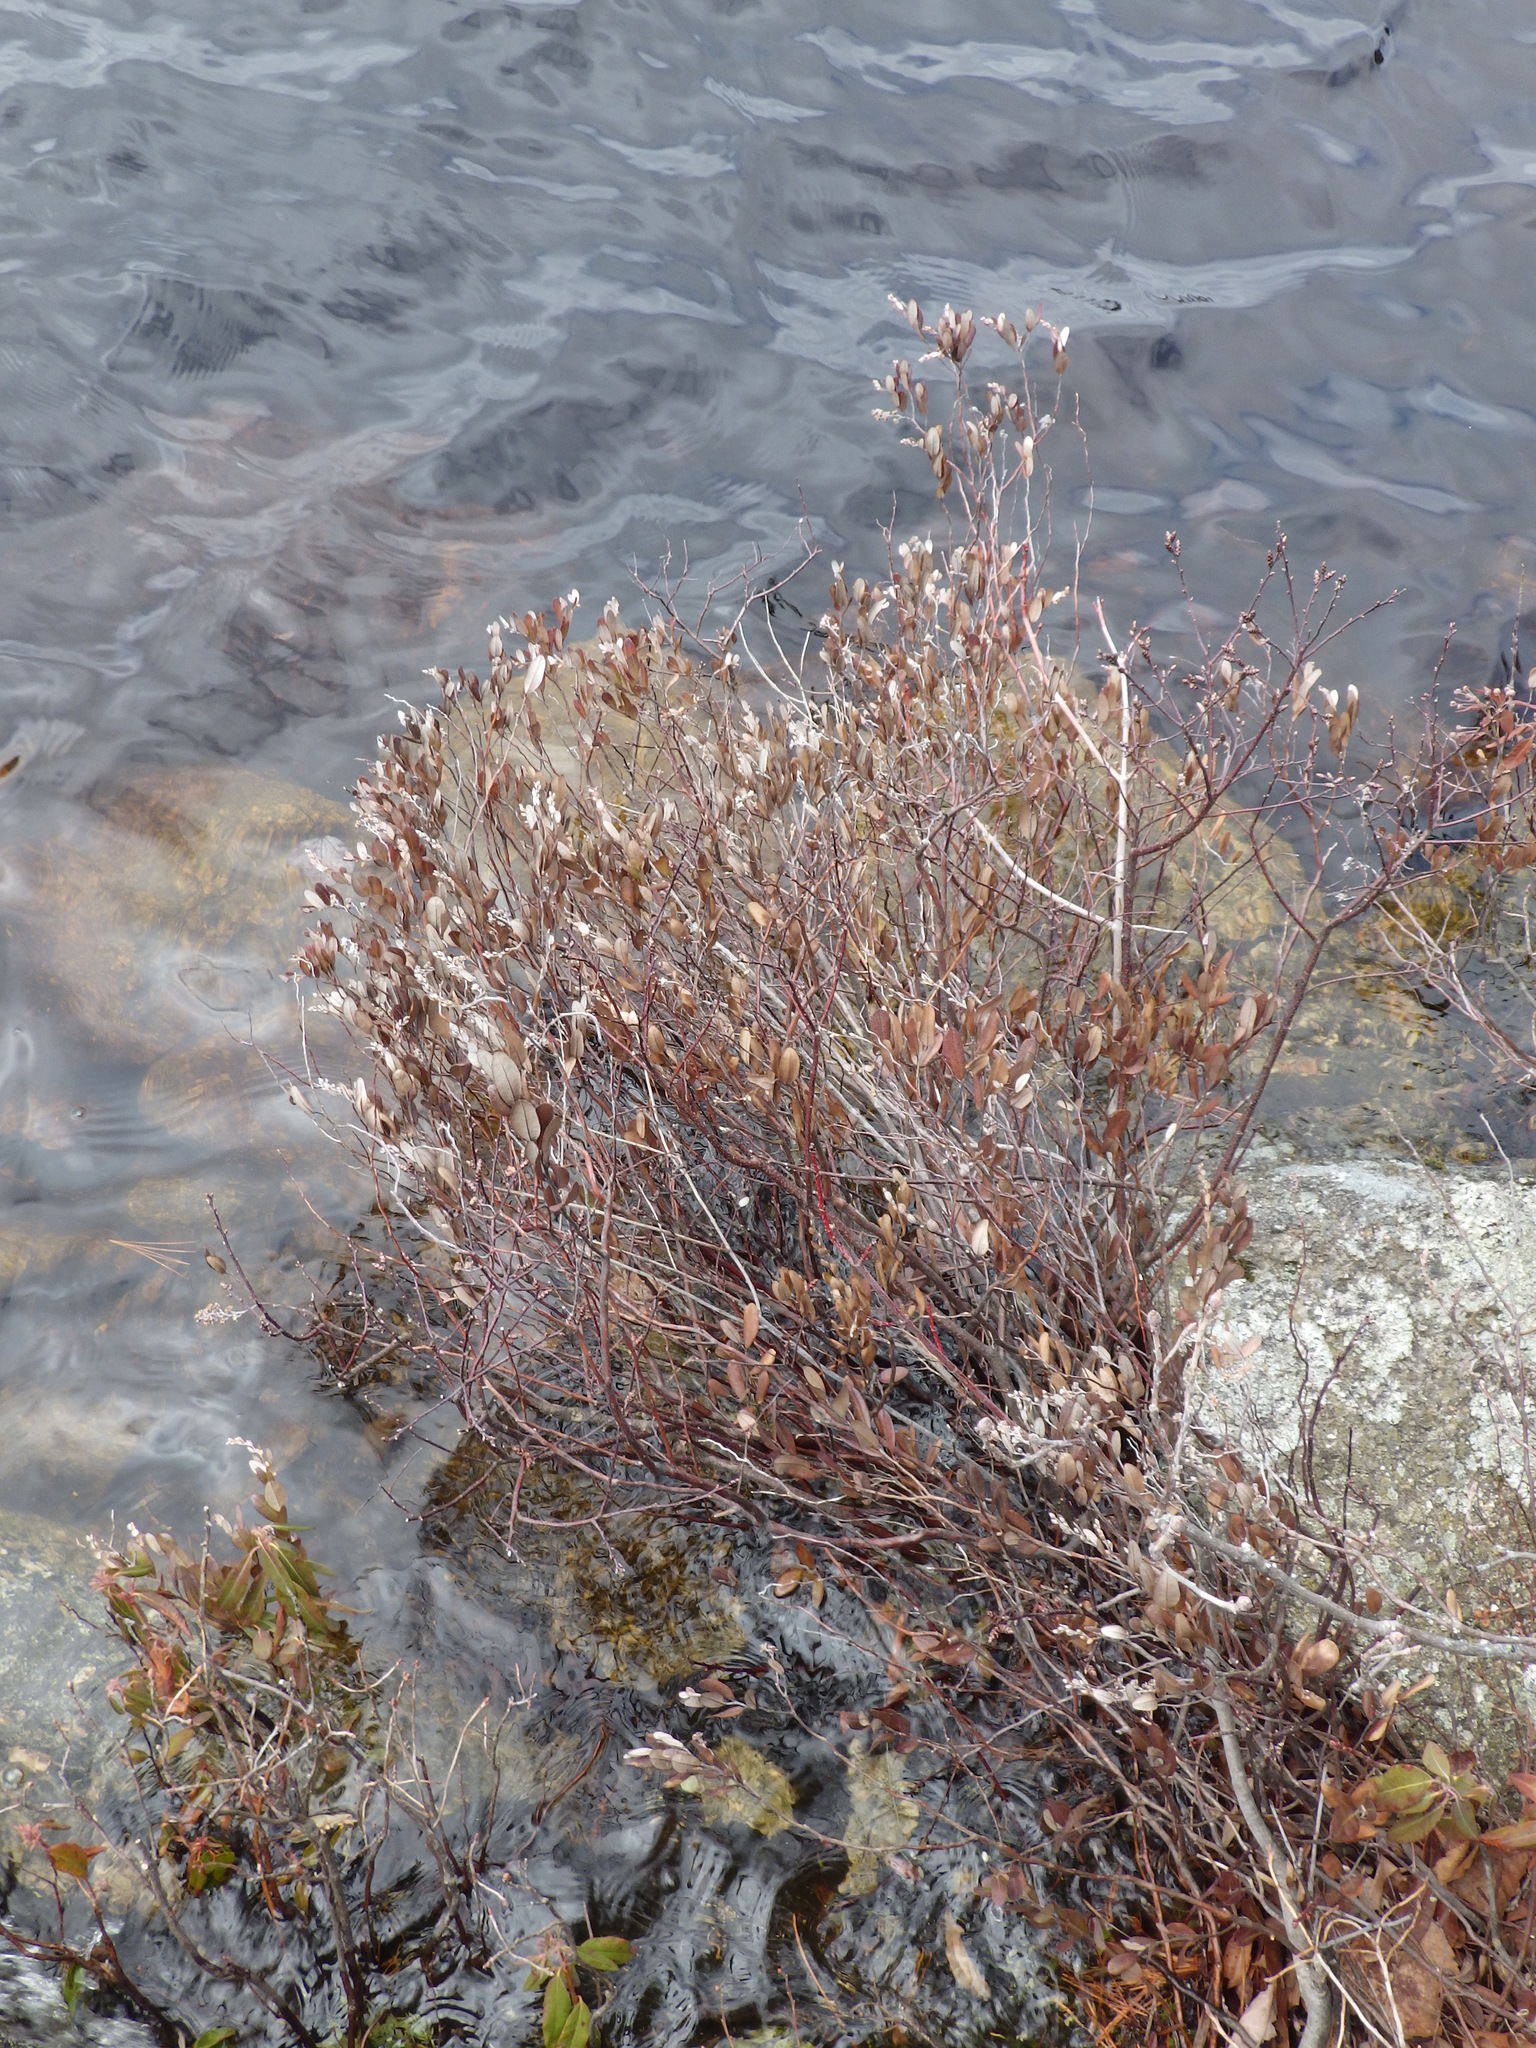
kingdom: Plantae
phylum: Tracheophyta
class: Magnoliopsida
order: Ericales
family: Ericaceae
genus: Chamaedaphne
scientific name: Chamaedaphne calyculata
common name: Leatherleaf
